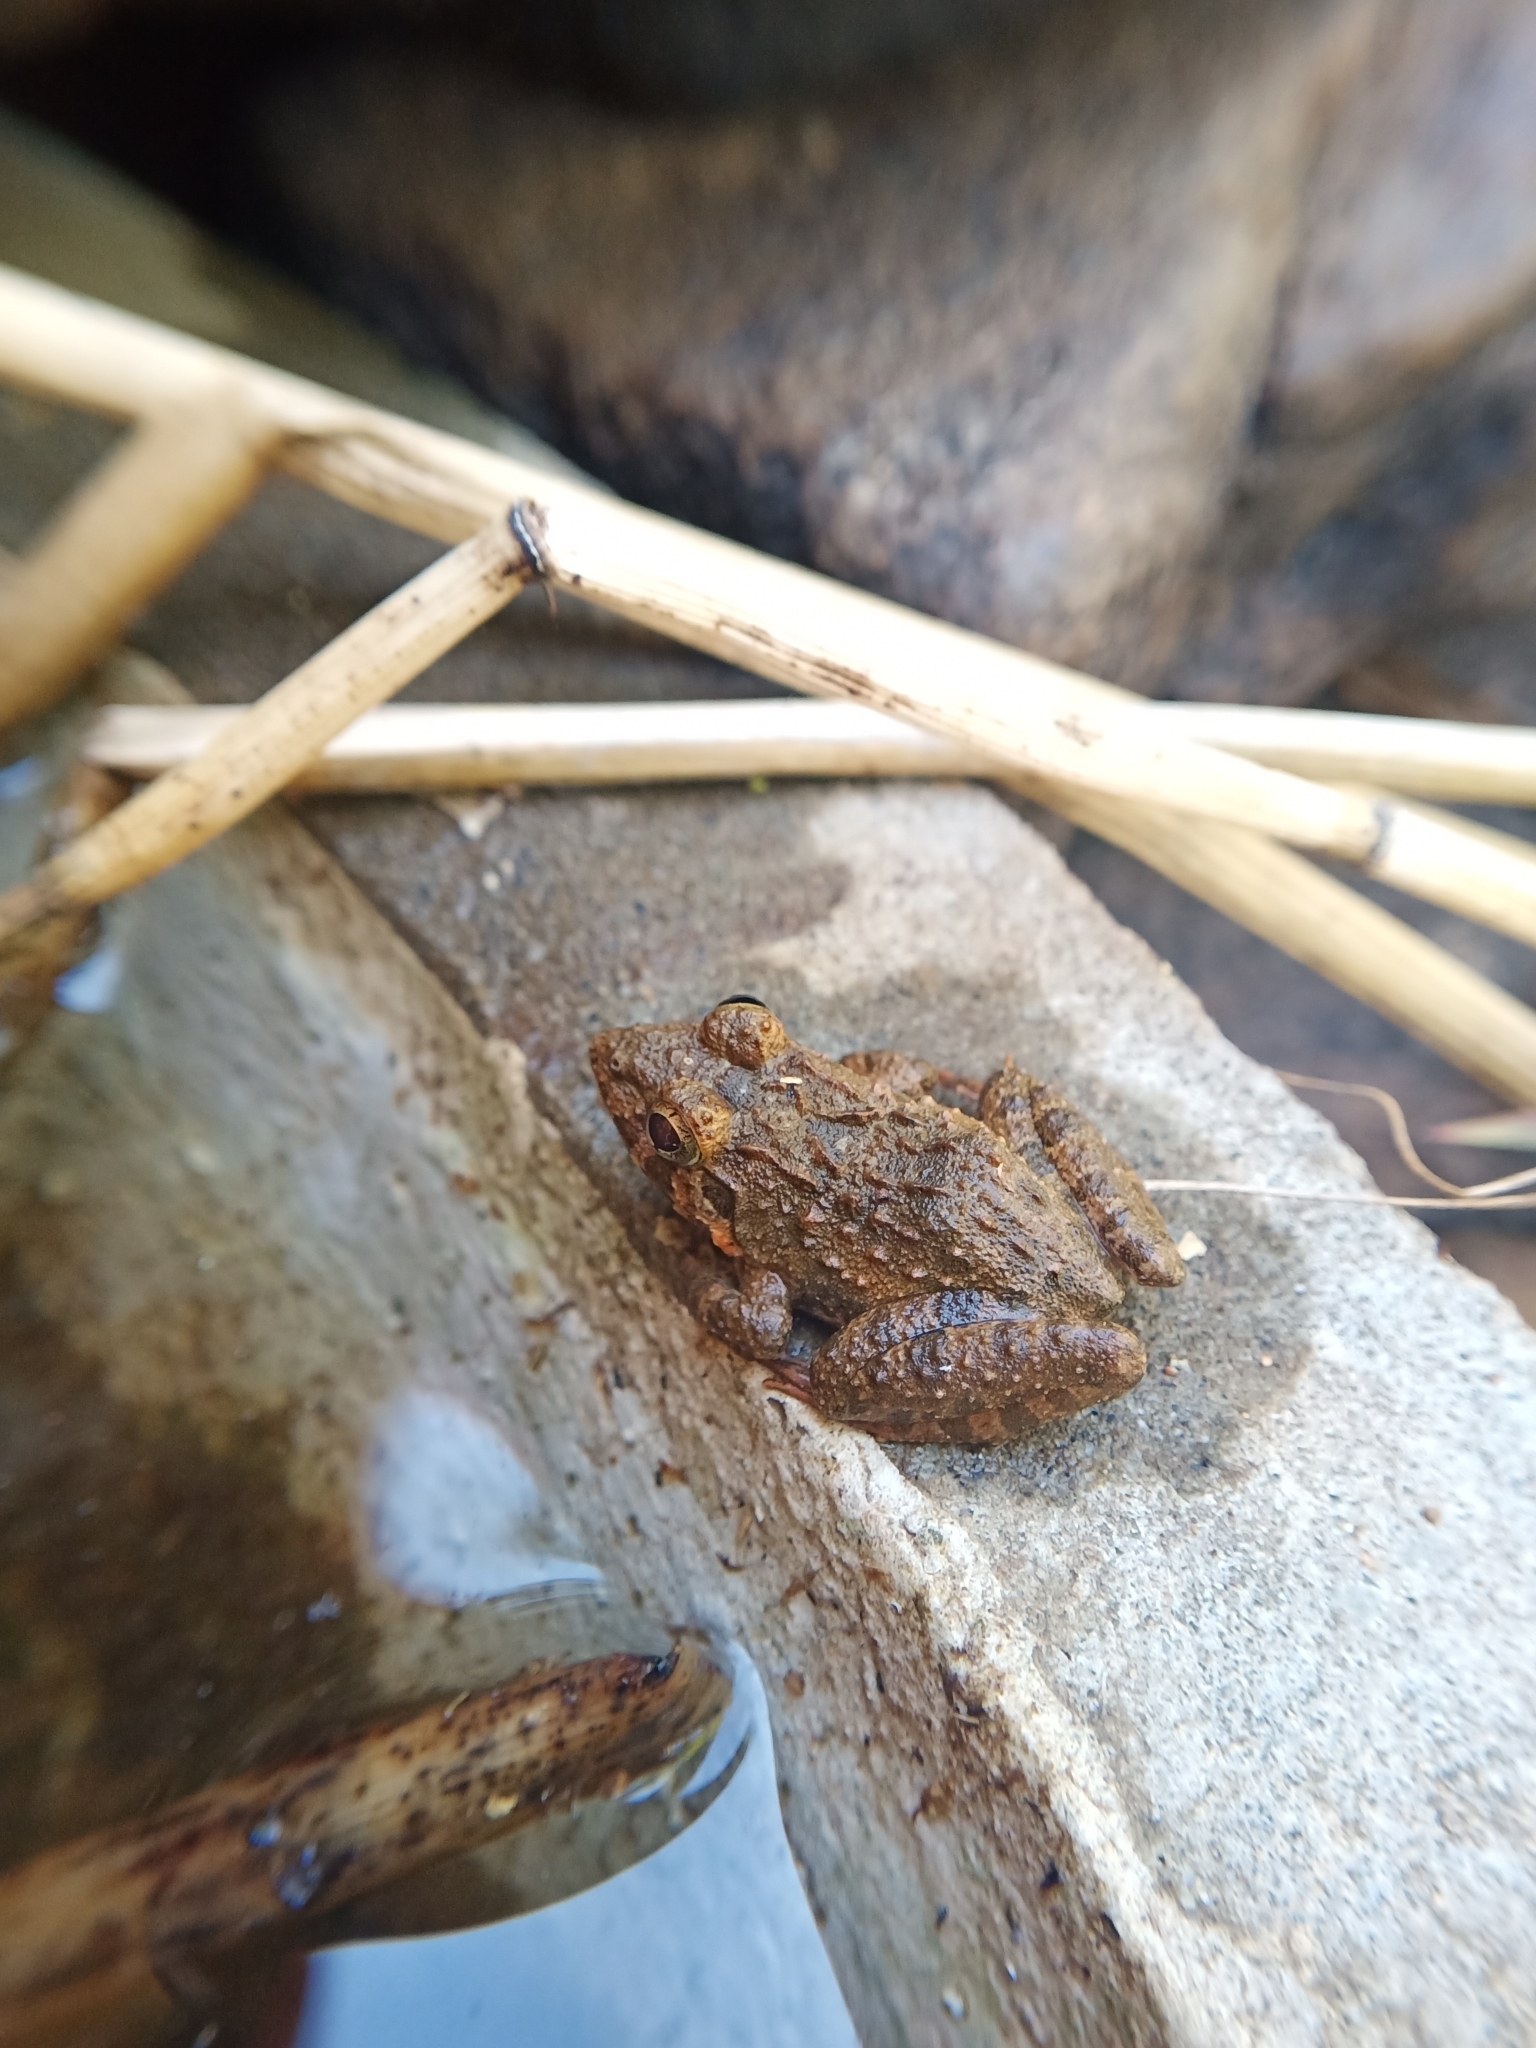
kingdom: Animalia
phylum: Chordata
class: Amphibia
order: Anura
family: Dicroglossidae
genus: Minervarya
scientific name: Minervarya agricola
